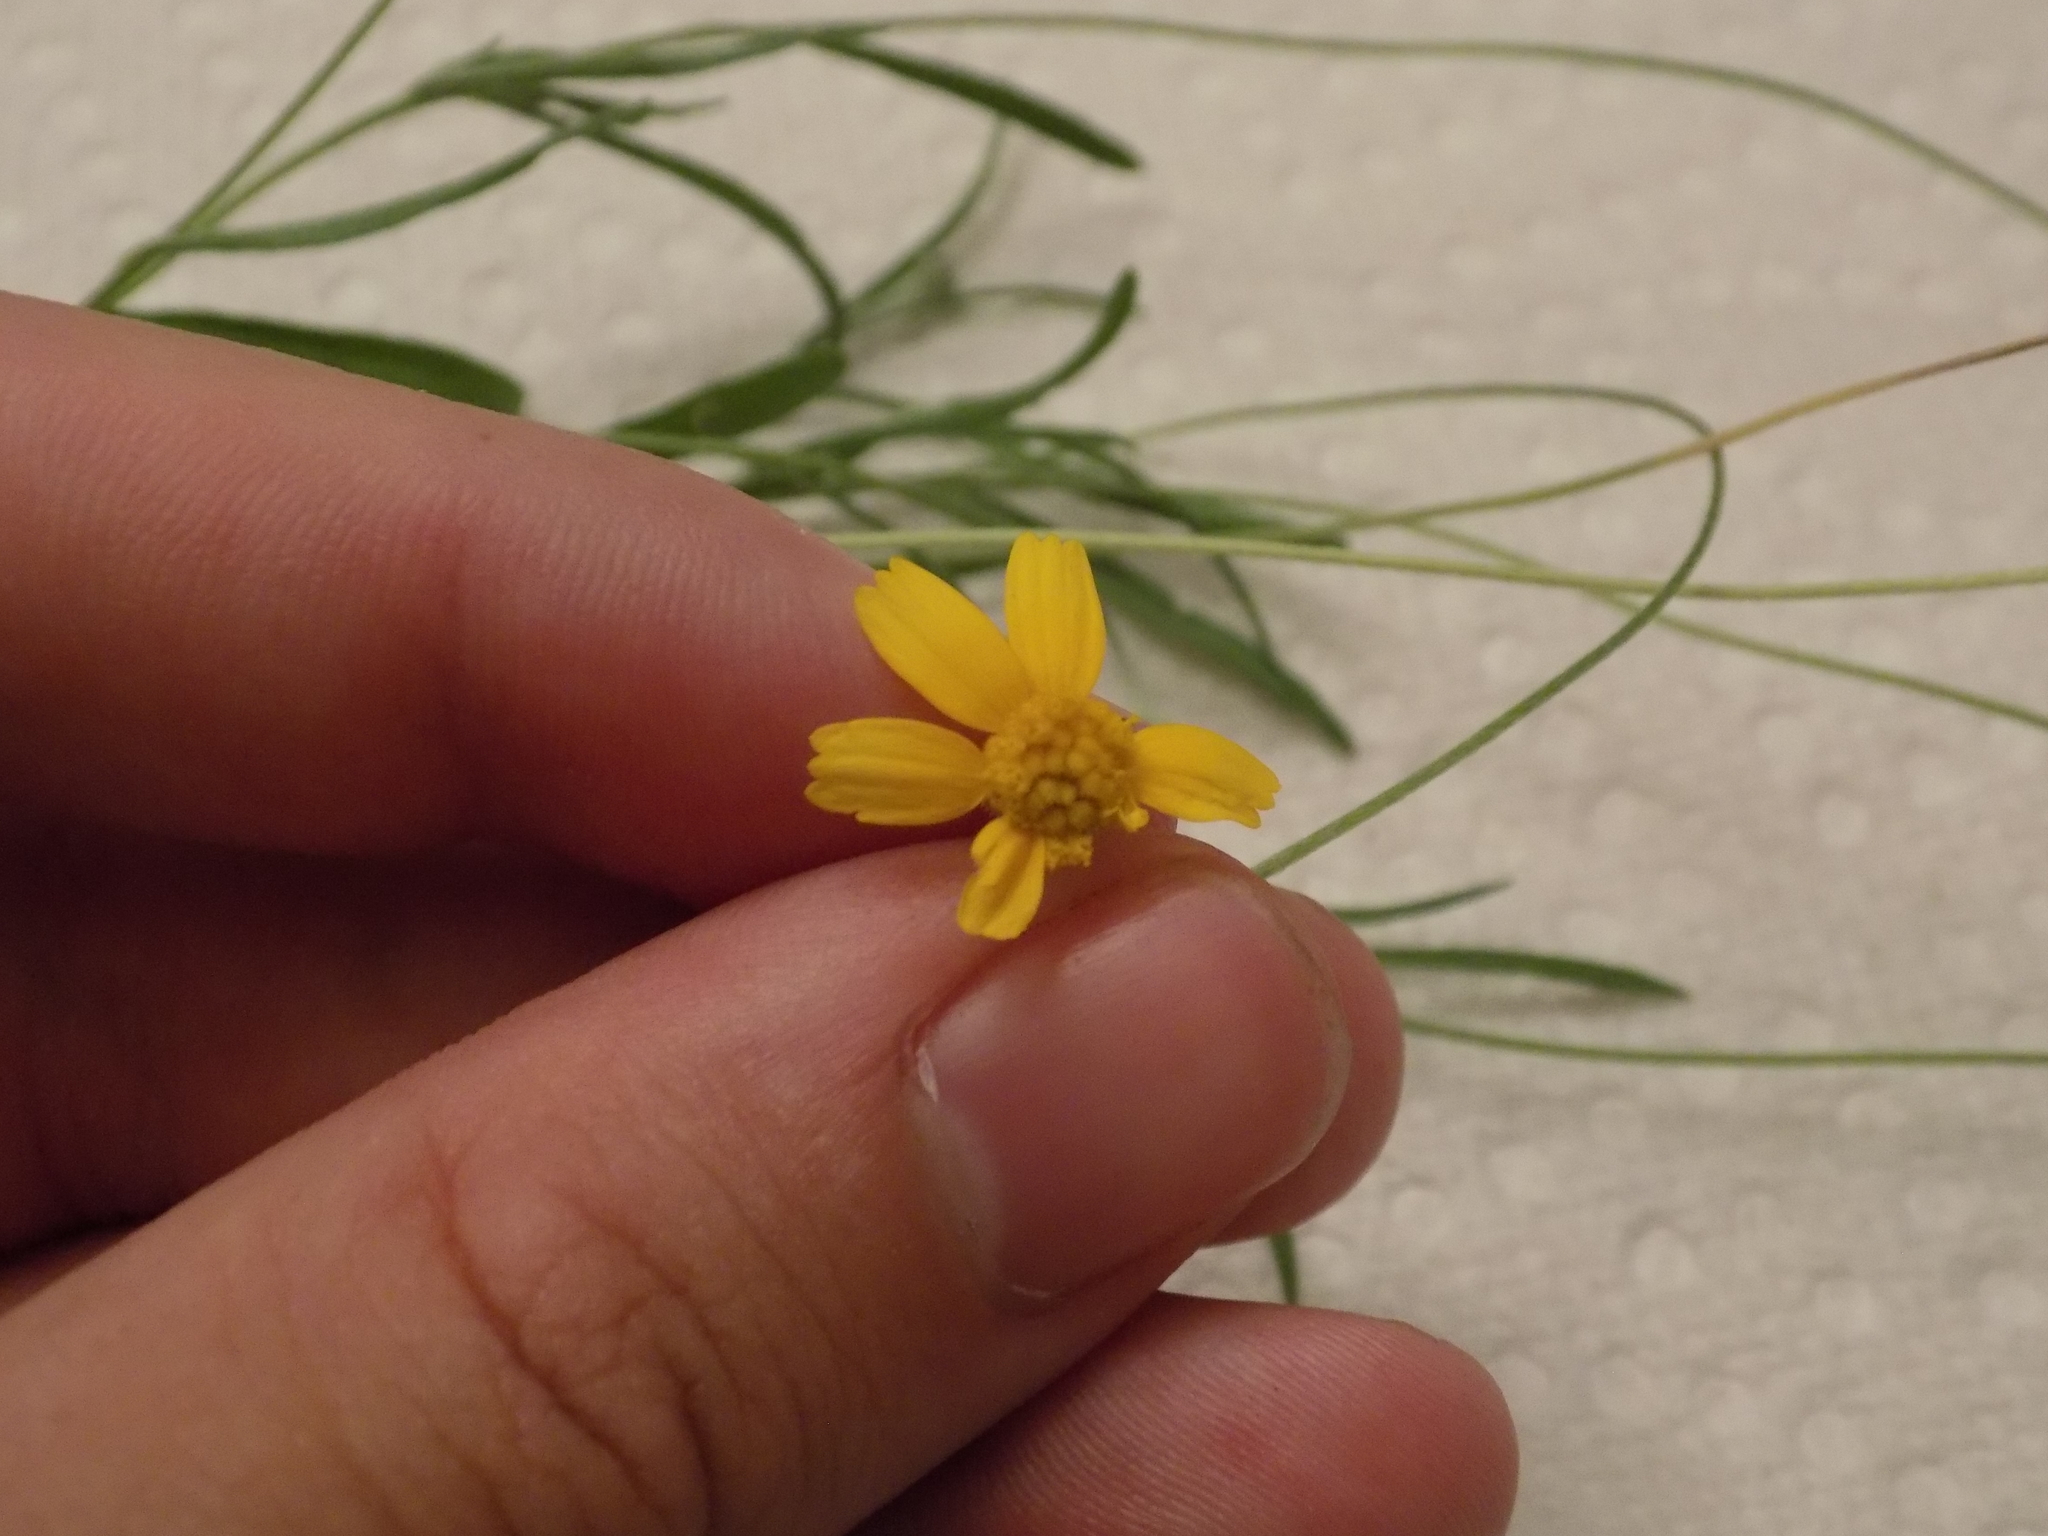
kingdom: Plantae
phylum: Tracheophyta
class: Magnoliopsida
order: Asterales
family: Asteraceae
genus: Tetraneuris
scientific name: Tetraneuris linearifolia
